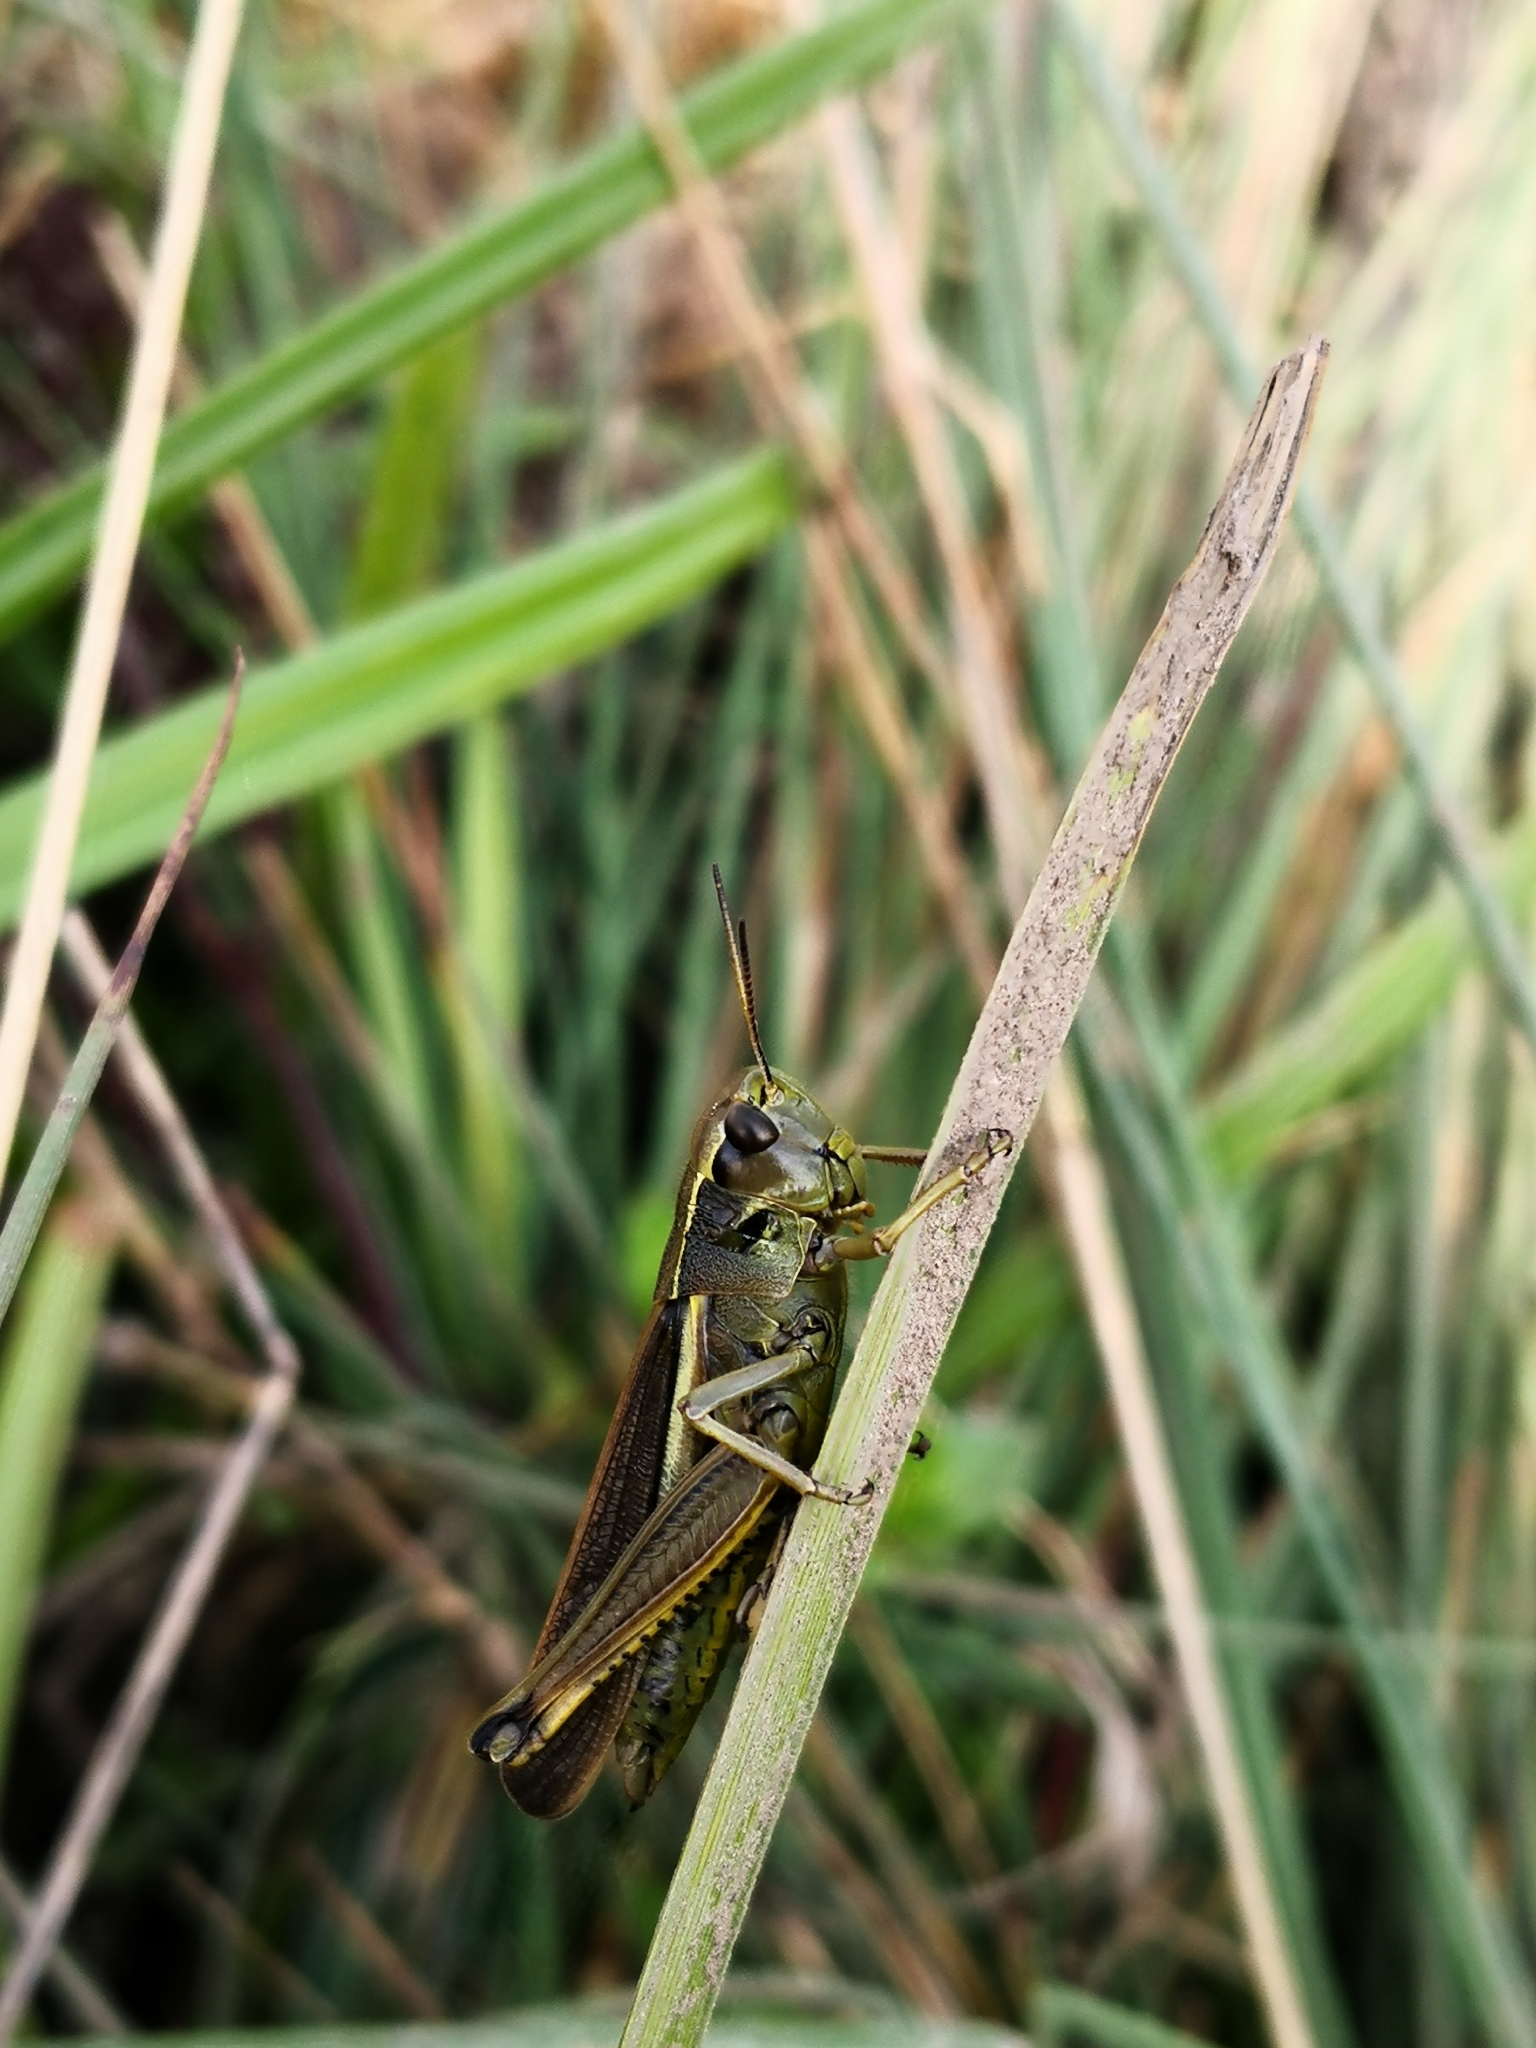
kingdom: Animalia
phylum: Arthropoda
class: Insecta
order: Orthoptera
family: Acrididae
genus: Stethophyma
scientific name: Stethophyma grossum
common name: Large marsh grasshopper
